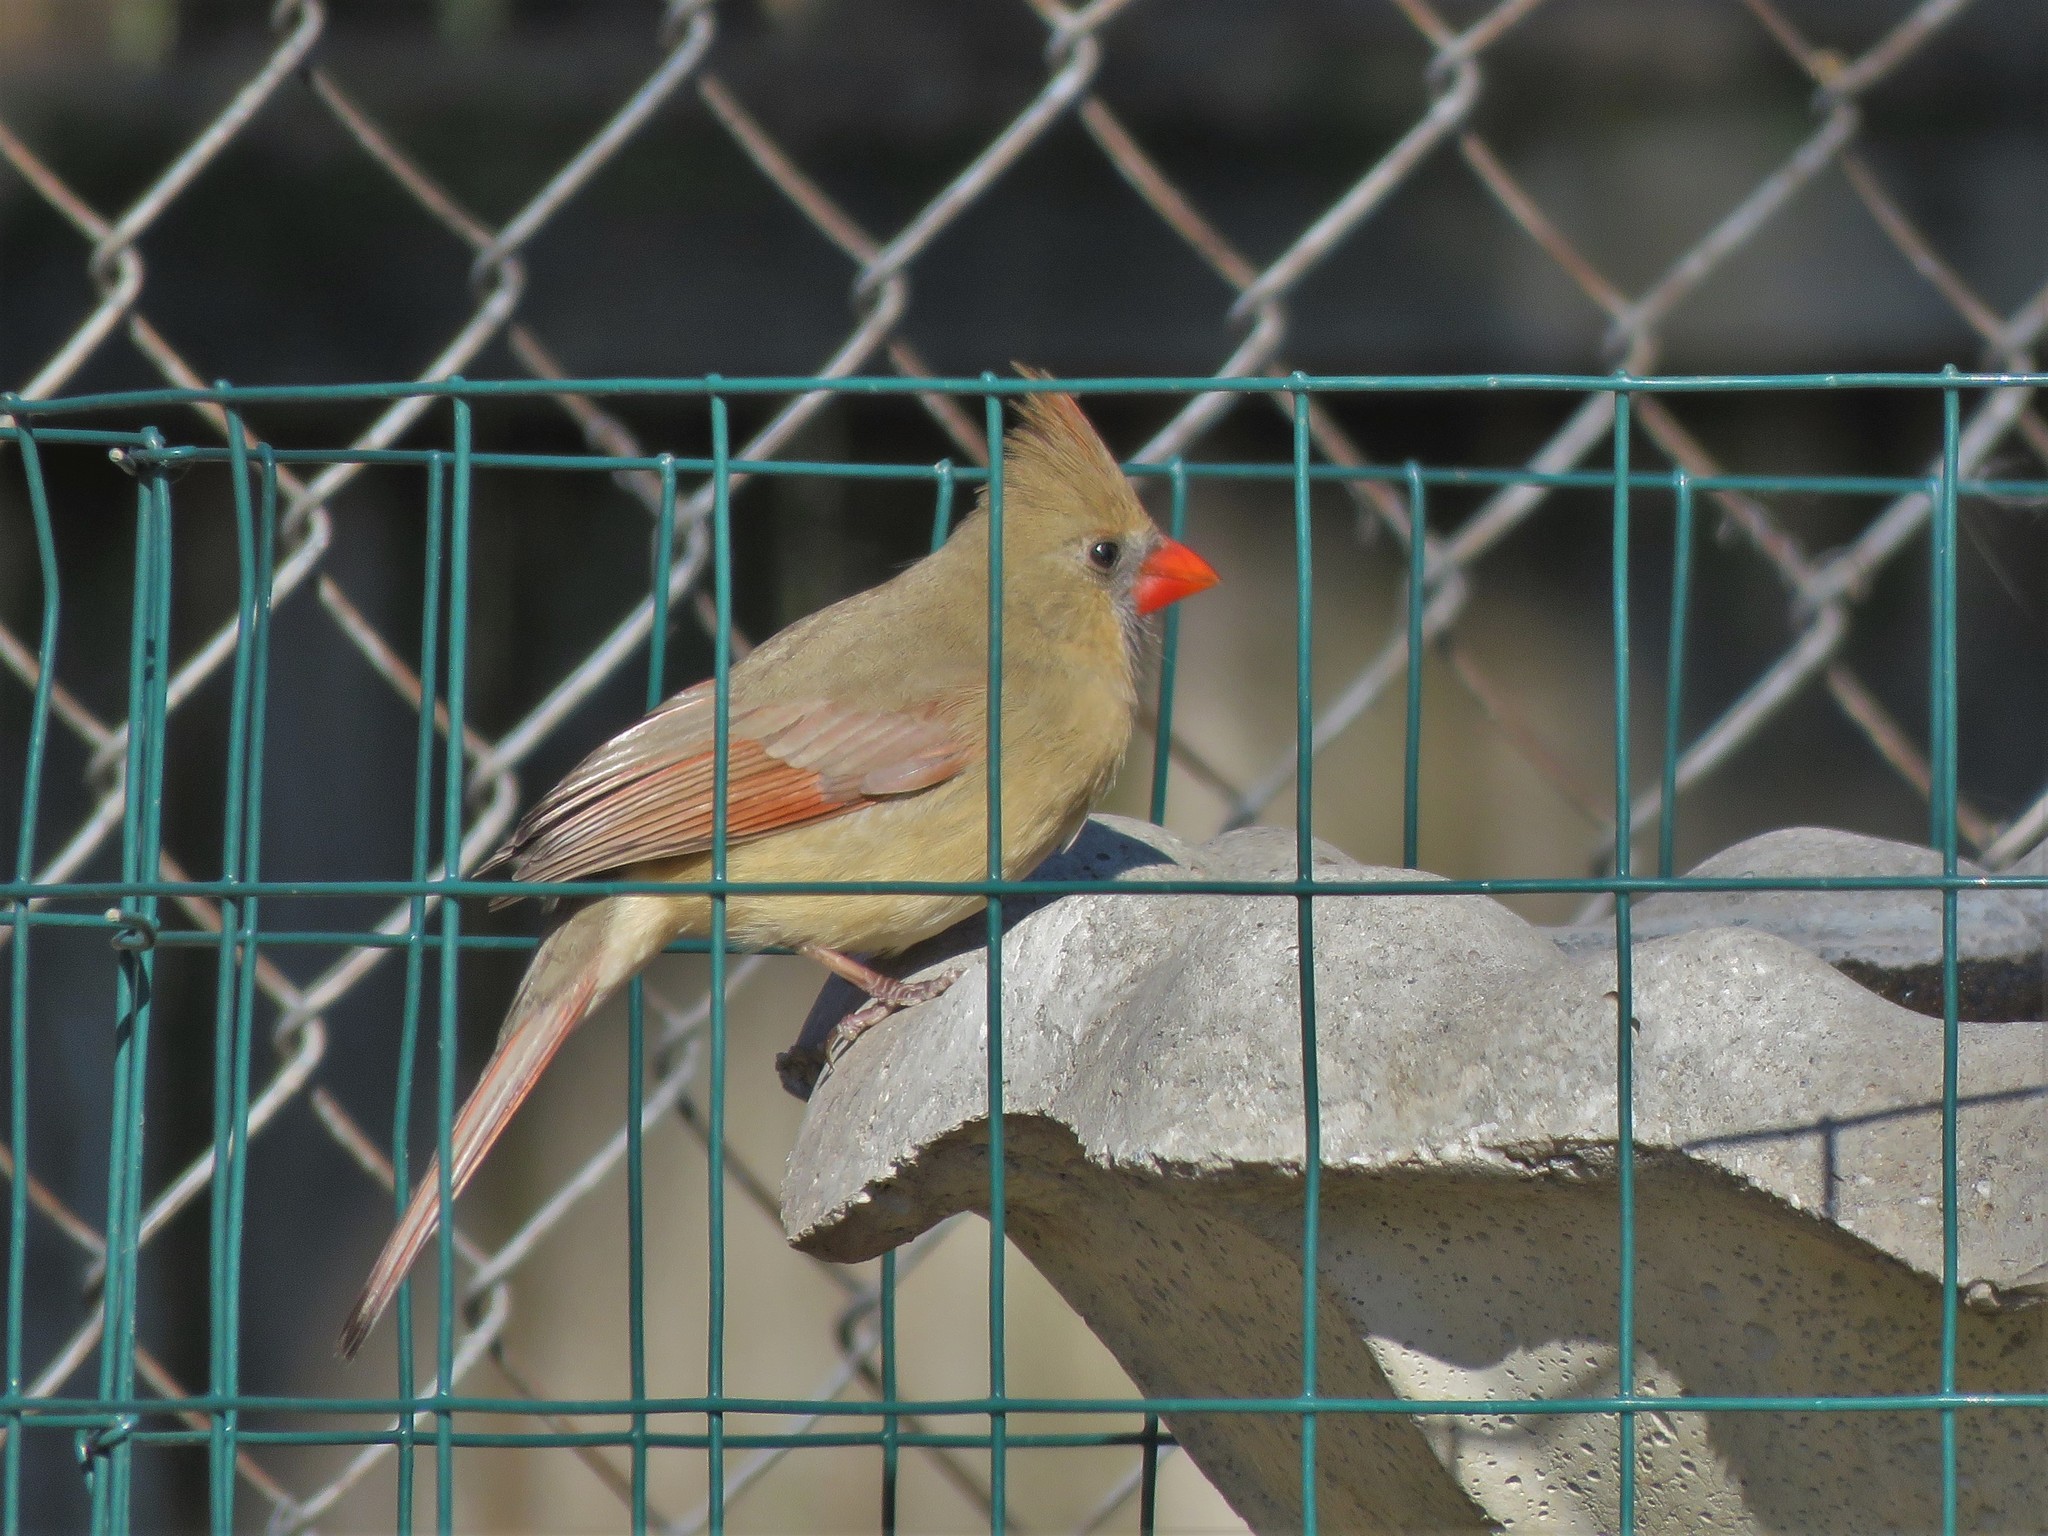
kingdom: Animalia
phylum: Chordata
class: Aves
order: Passeriformes
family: Cardinalidae
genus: Cardinalis
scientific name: Cardinalis cardinalis
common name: Northern cardinal
